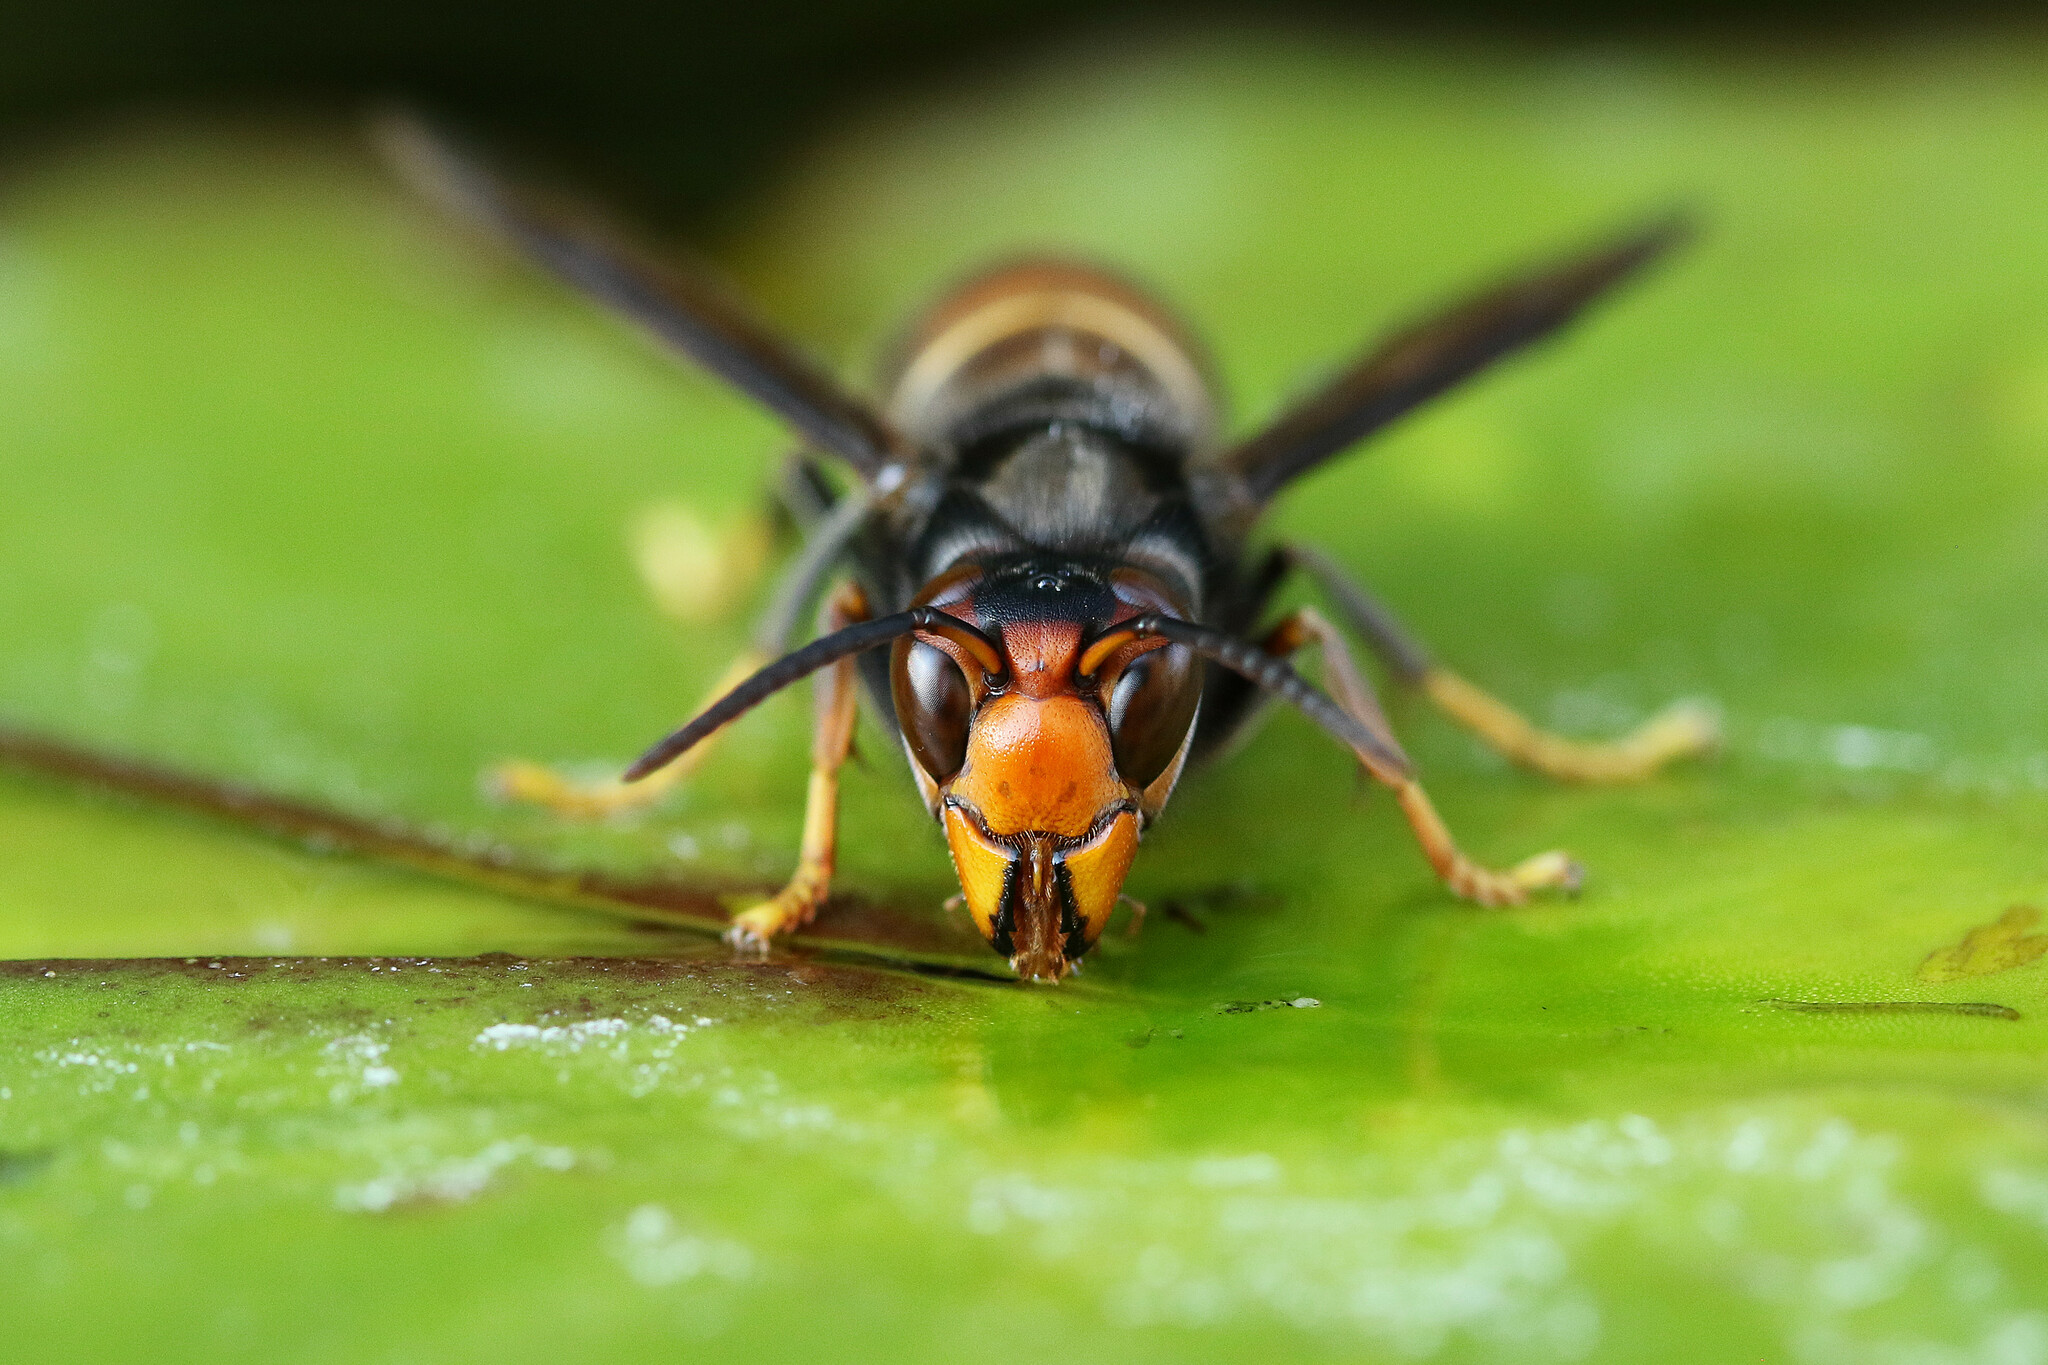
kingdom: Animalia
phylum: Arthropoda
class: Insecta
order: Hymenoptera
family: Vespidae
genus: Vespa
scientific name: Vespa velutina
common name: Asian hornet
